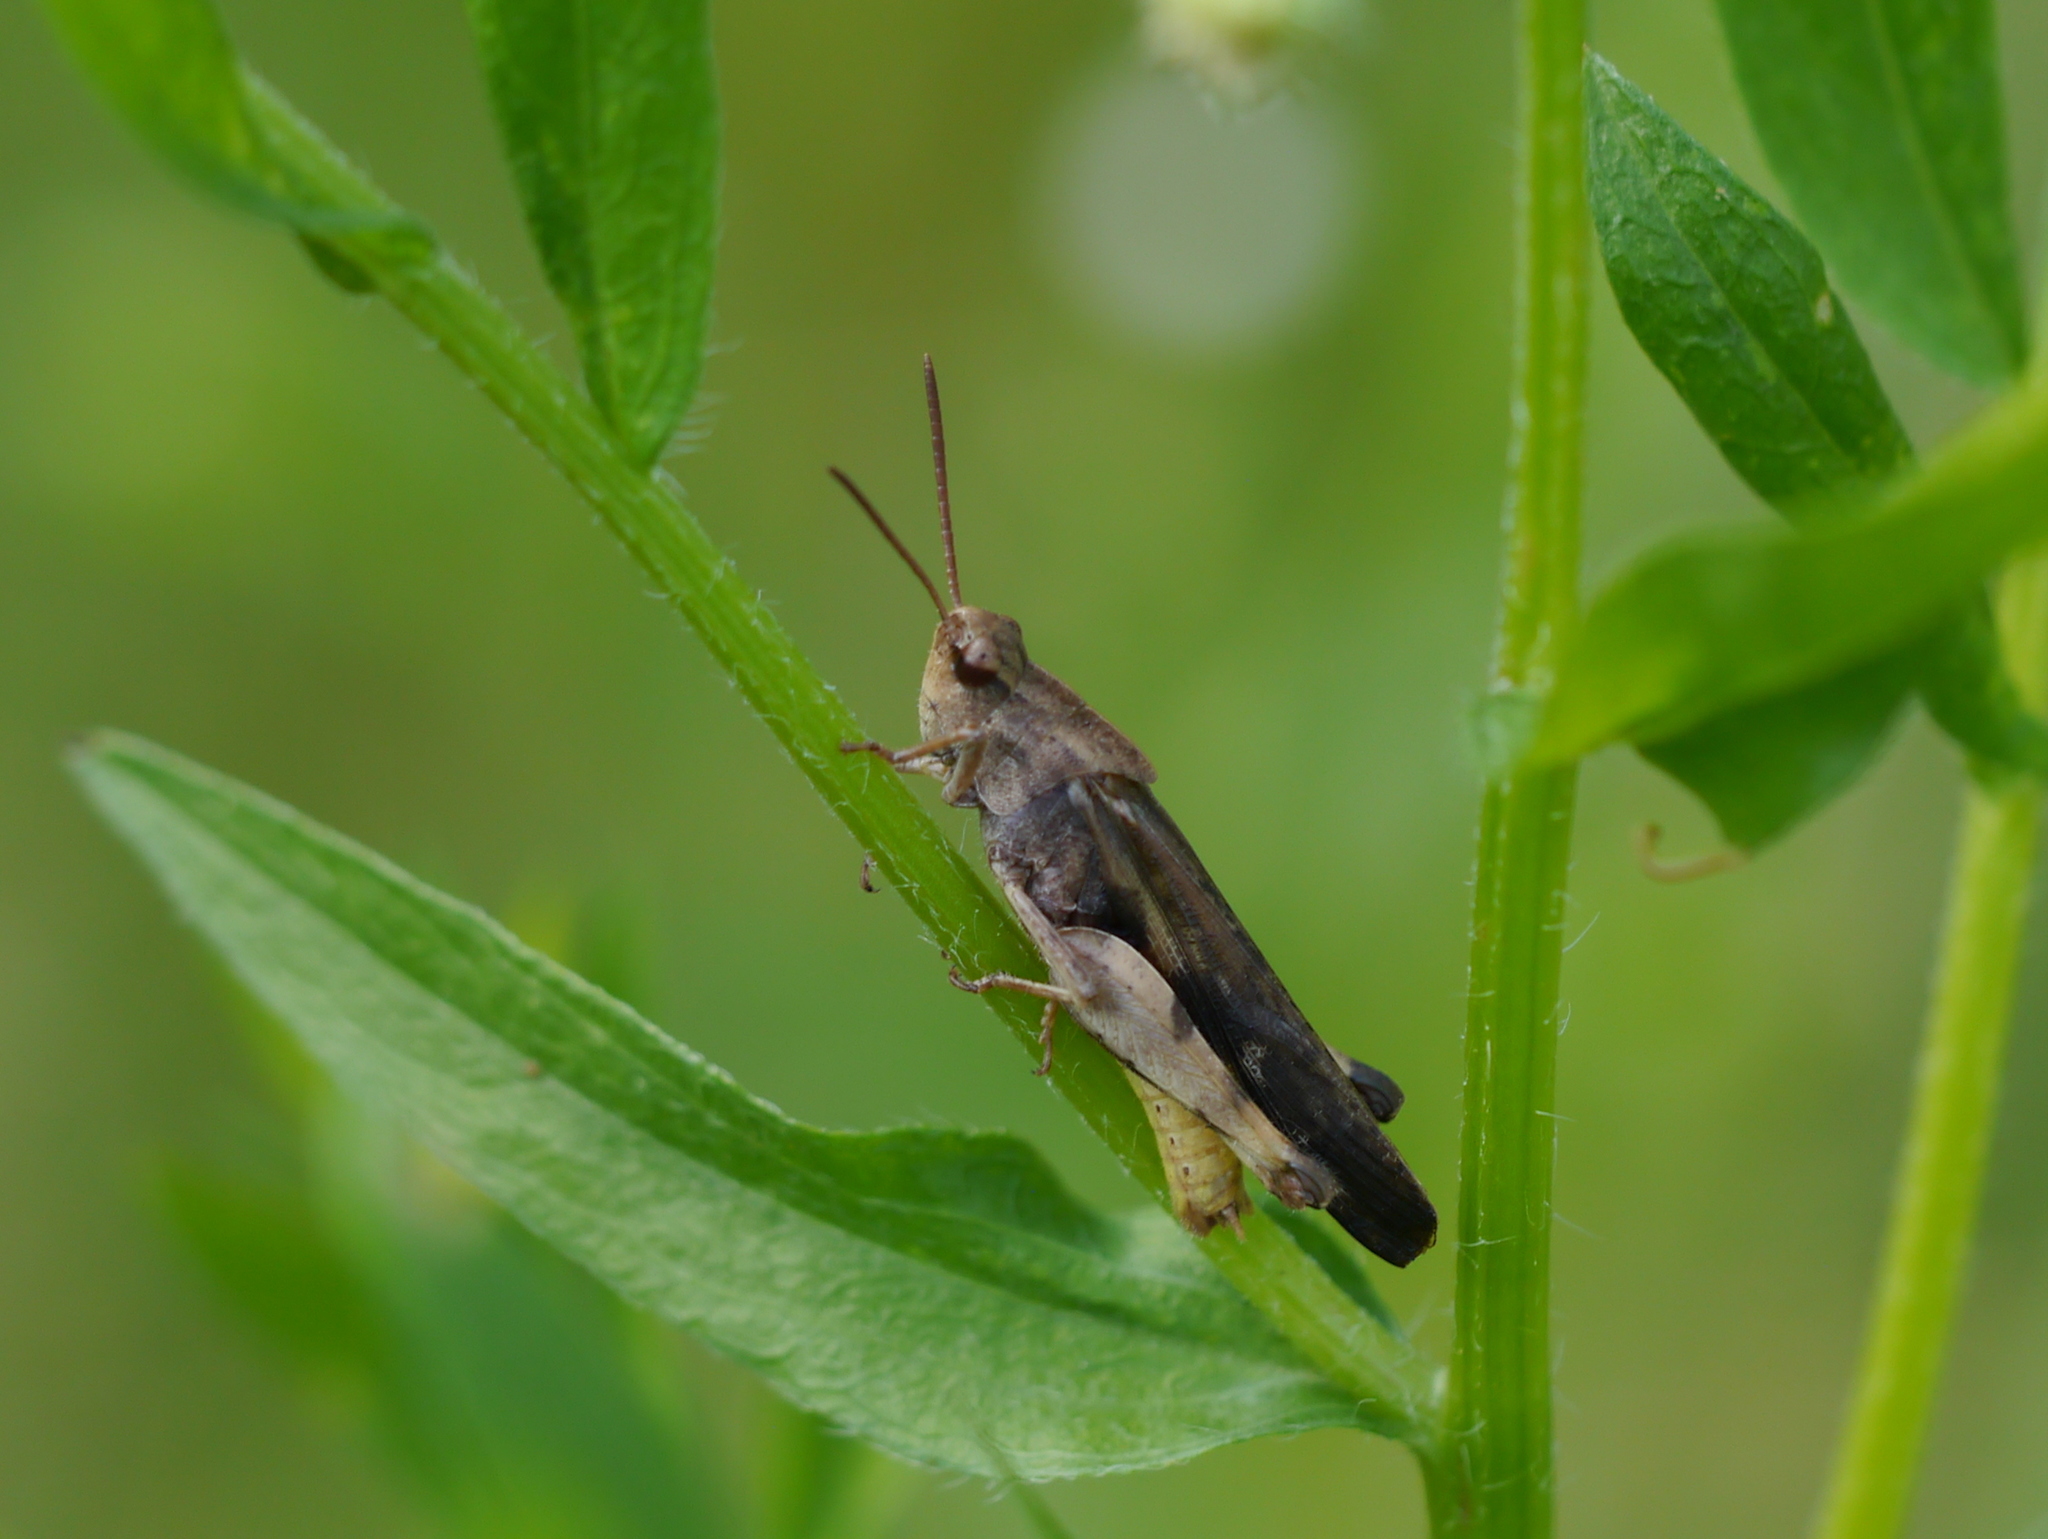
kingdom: Animalia
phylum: Arthropoda
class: Insecta
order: Orthoptera
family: Acrididae
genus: Chortophaga
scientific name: Chortophaga viridifasciata
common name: Green-striped grasshopper
